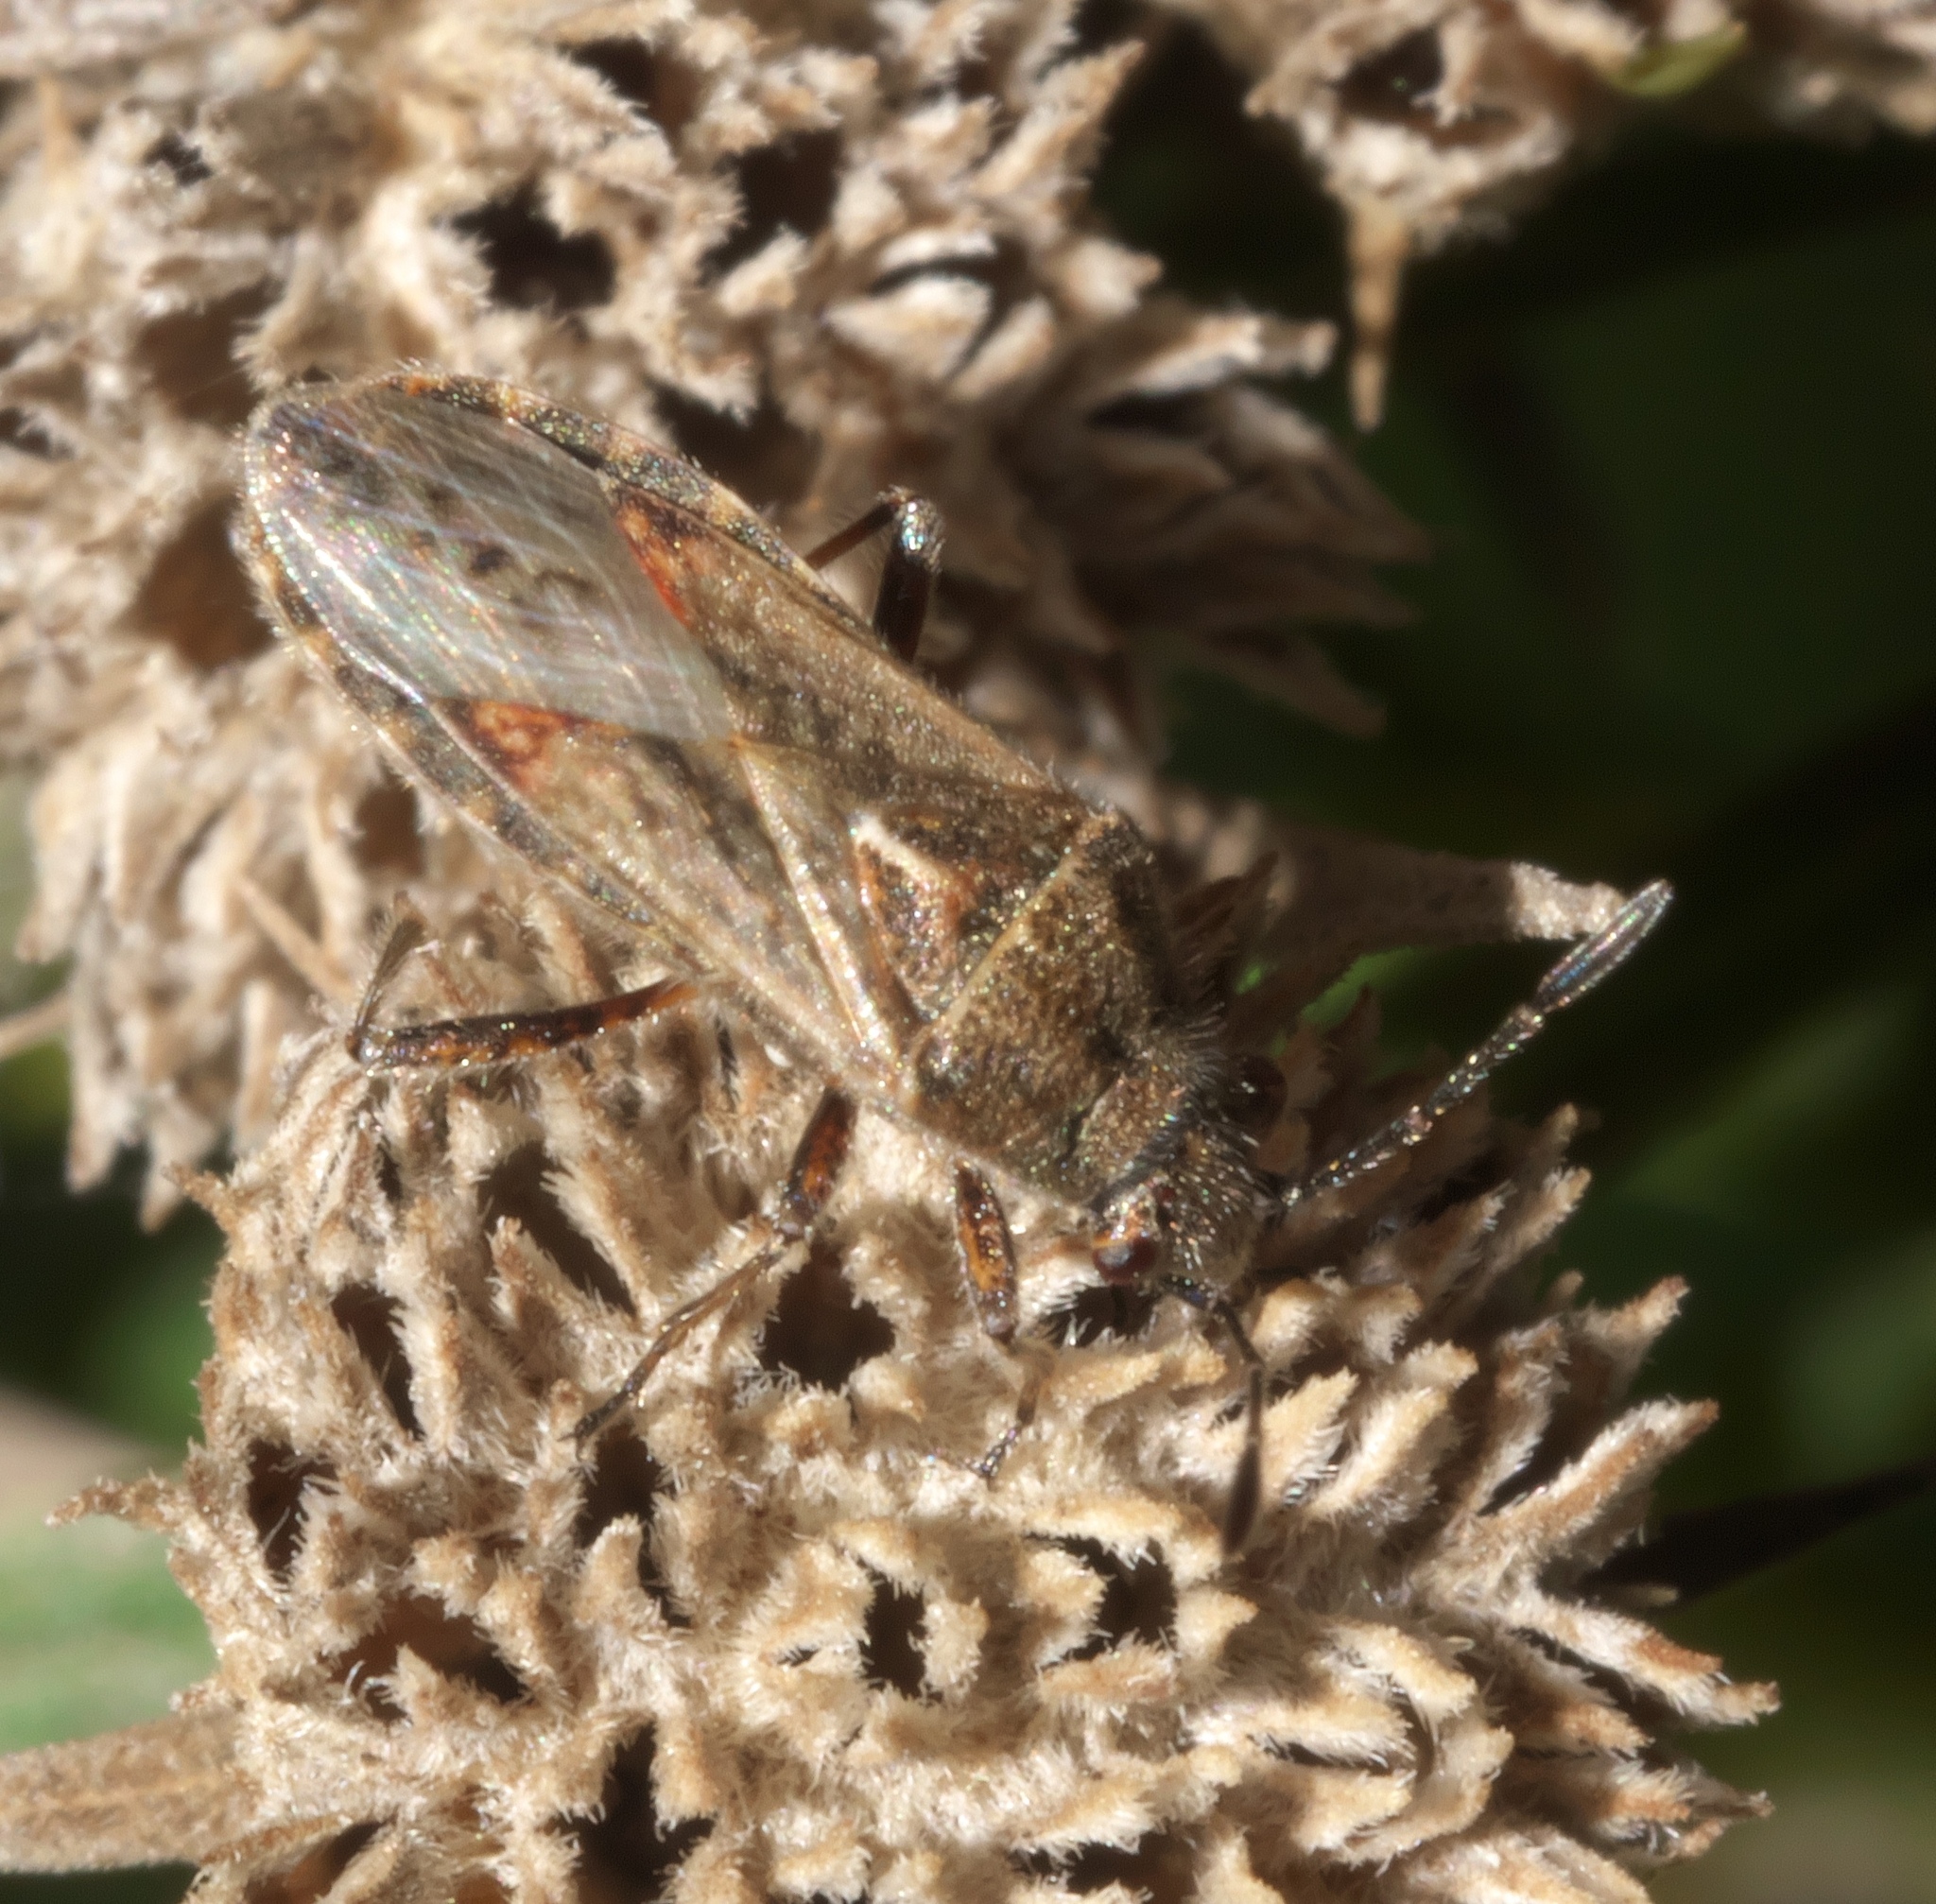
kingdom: Animalia
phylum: Arthropoda
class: Insecta
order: Hemiptera
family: Lygaeidae
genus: Neortholomus
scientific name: Neortholomus scolopax
